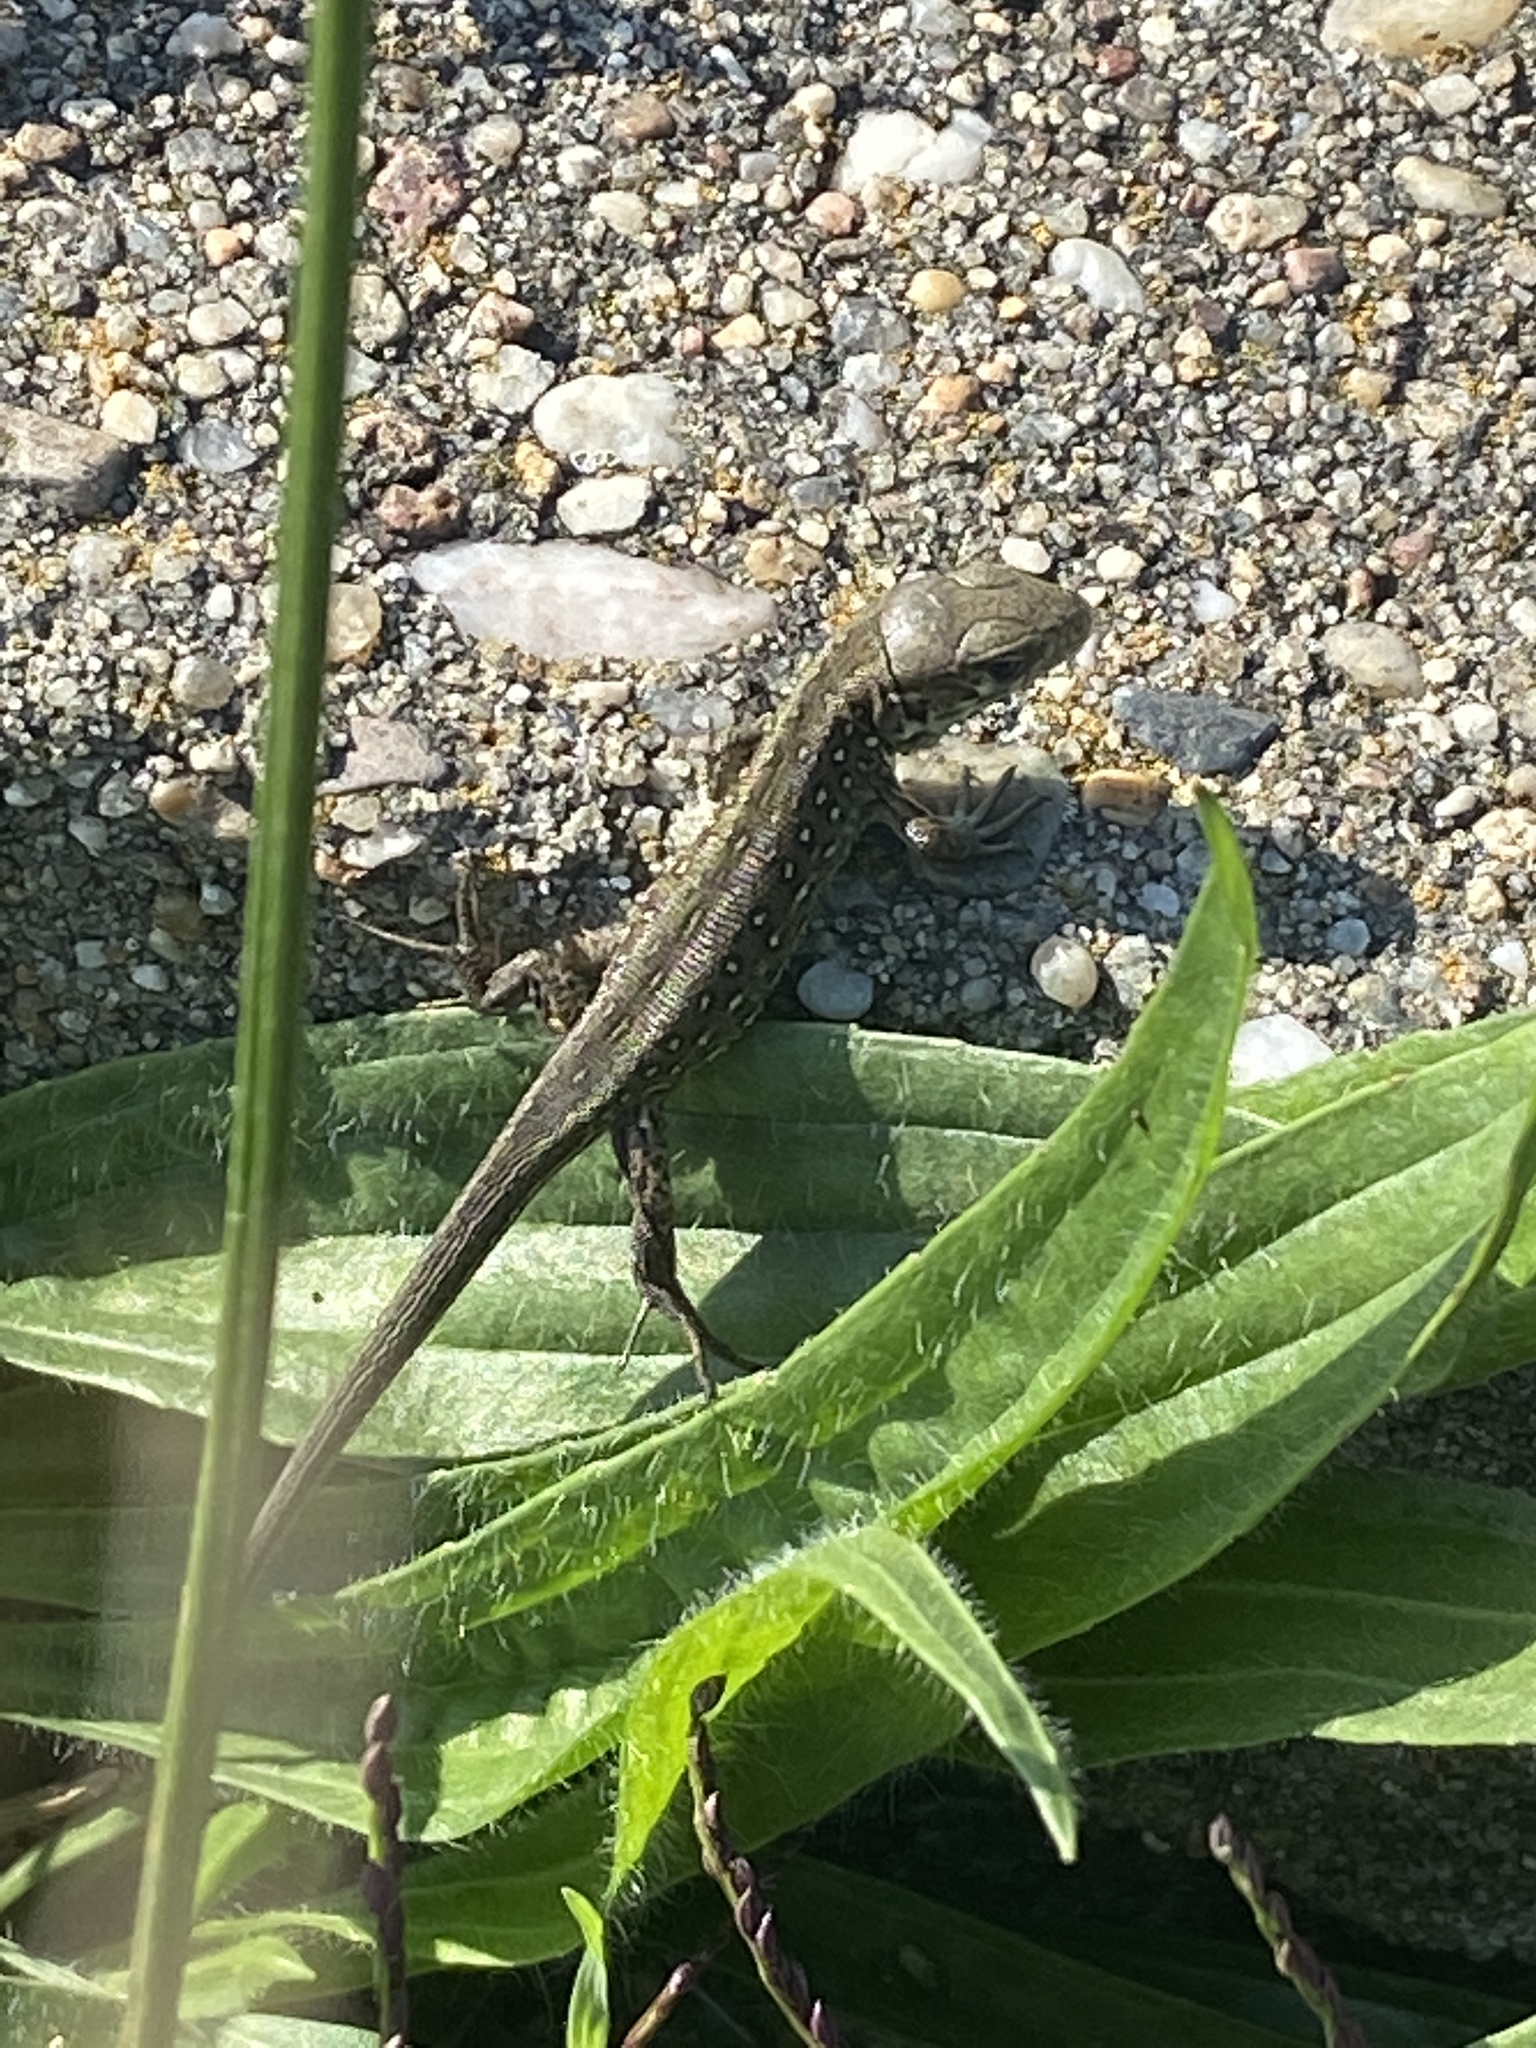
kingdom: Animalia
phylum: Chordata
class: Squamata
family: Lacertidae
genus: Lacerta
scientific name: Lacerta agilis
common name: Sand lizard
